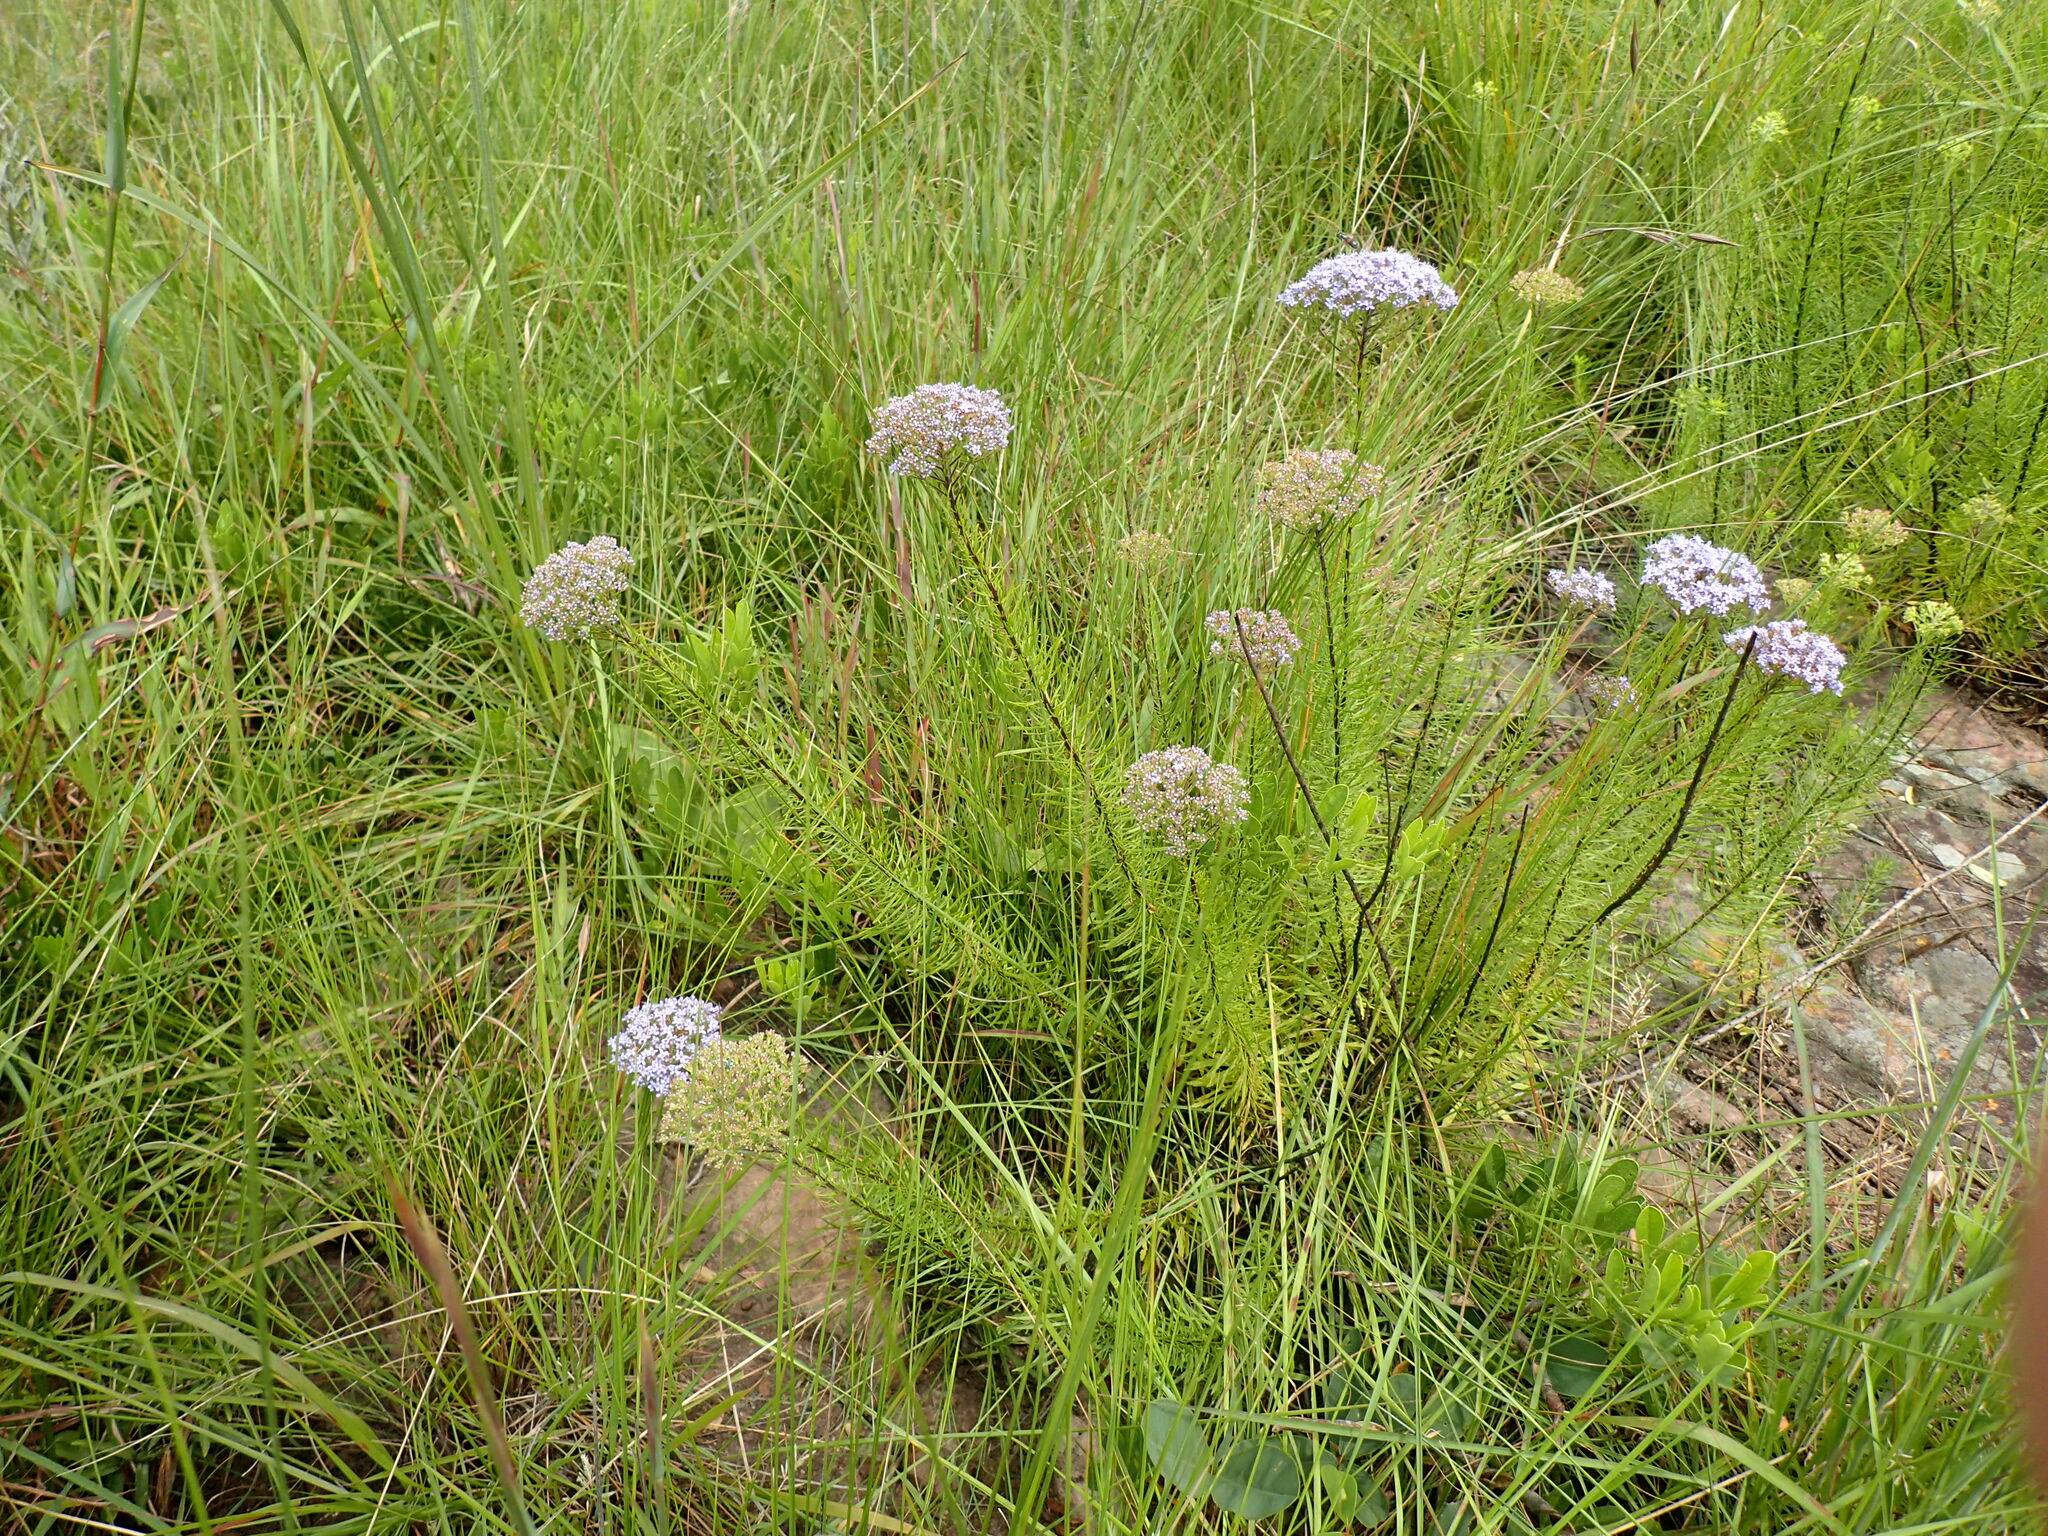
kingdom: Plantae
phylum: Tracheophyta
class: Magnoliopsida
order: Lamiales
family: Scrophulariaceae
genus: Tetraselago
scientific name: Tetraselago natalensis
